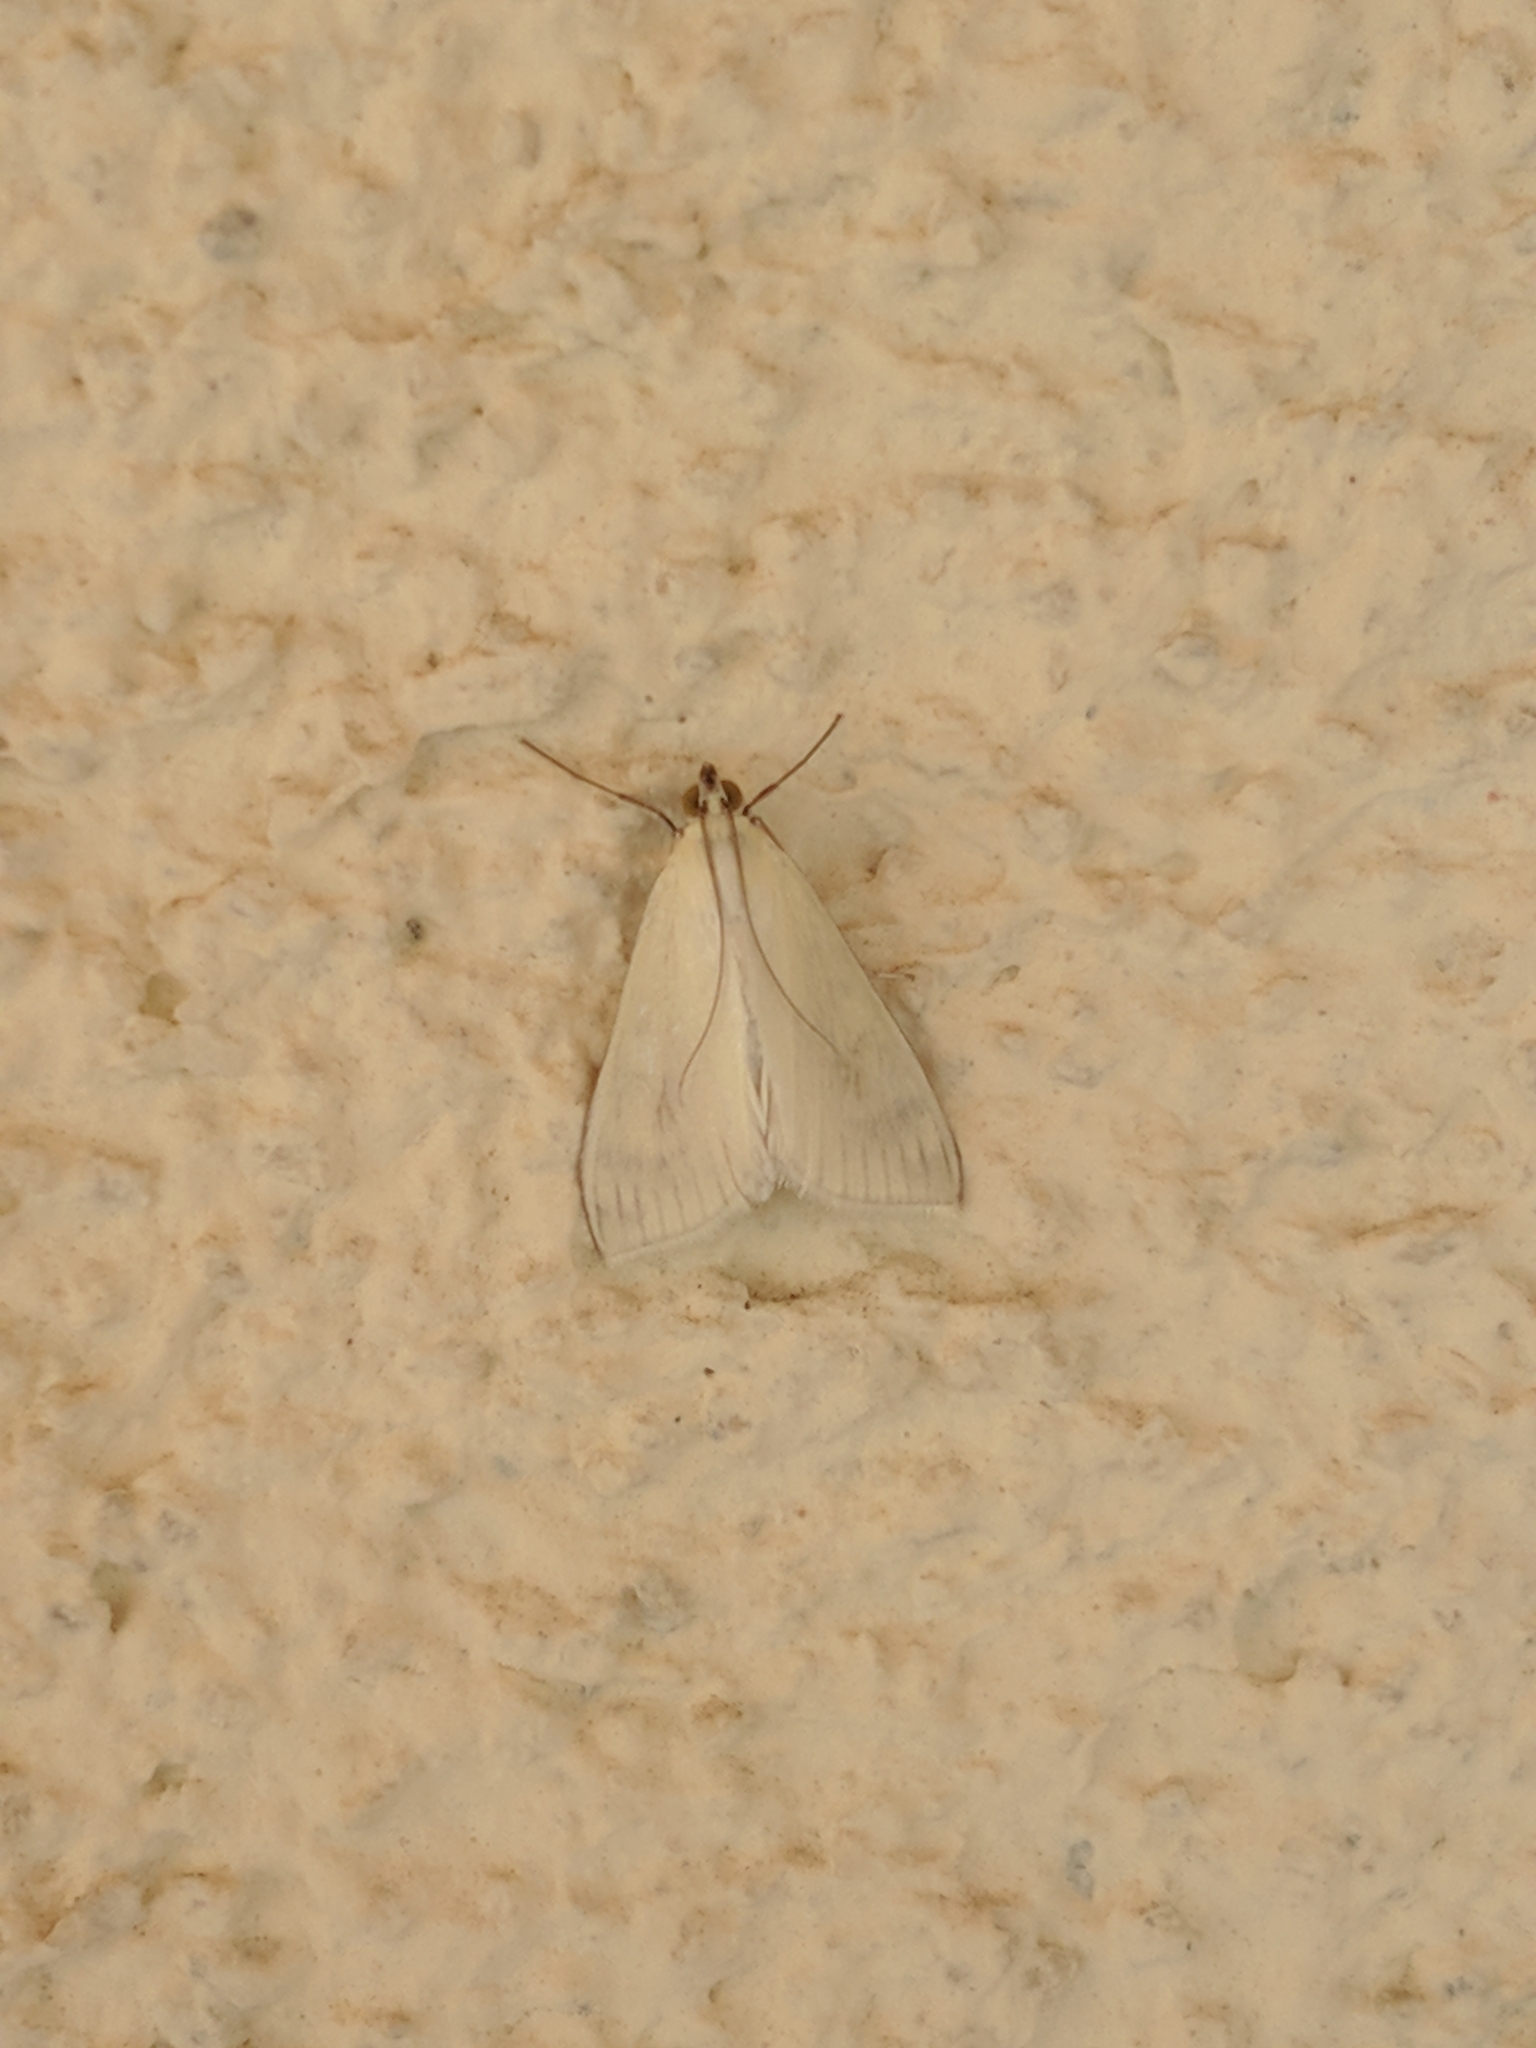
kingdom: Animalia
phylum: Arthropoda
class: Insecta
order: Lepidoptera
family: Crambidae
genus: Sitochroa
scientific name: Sitochroa palealis
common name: Greenish-yellow sitochroa moth
